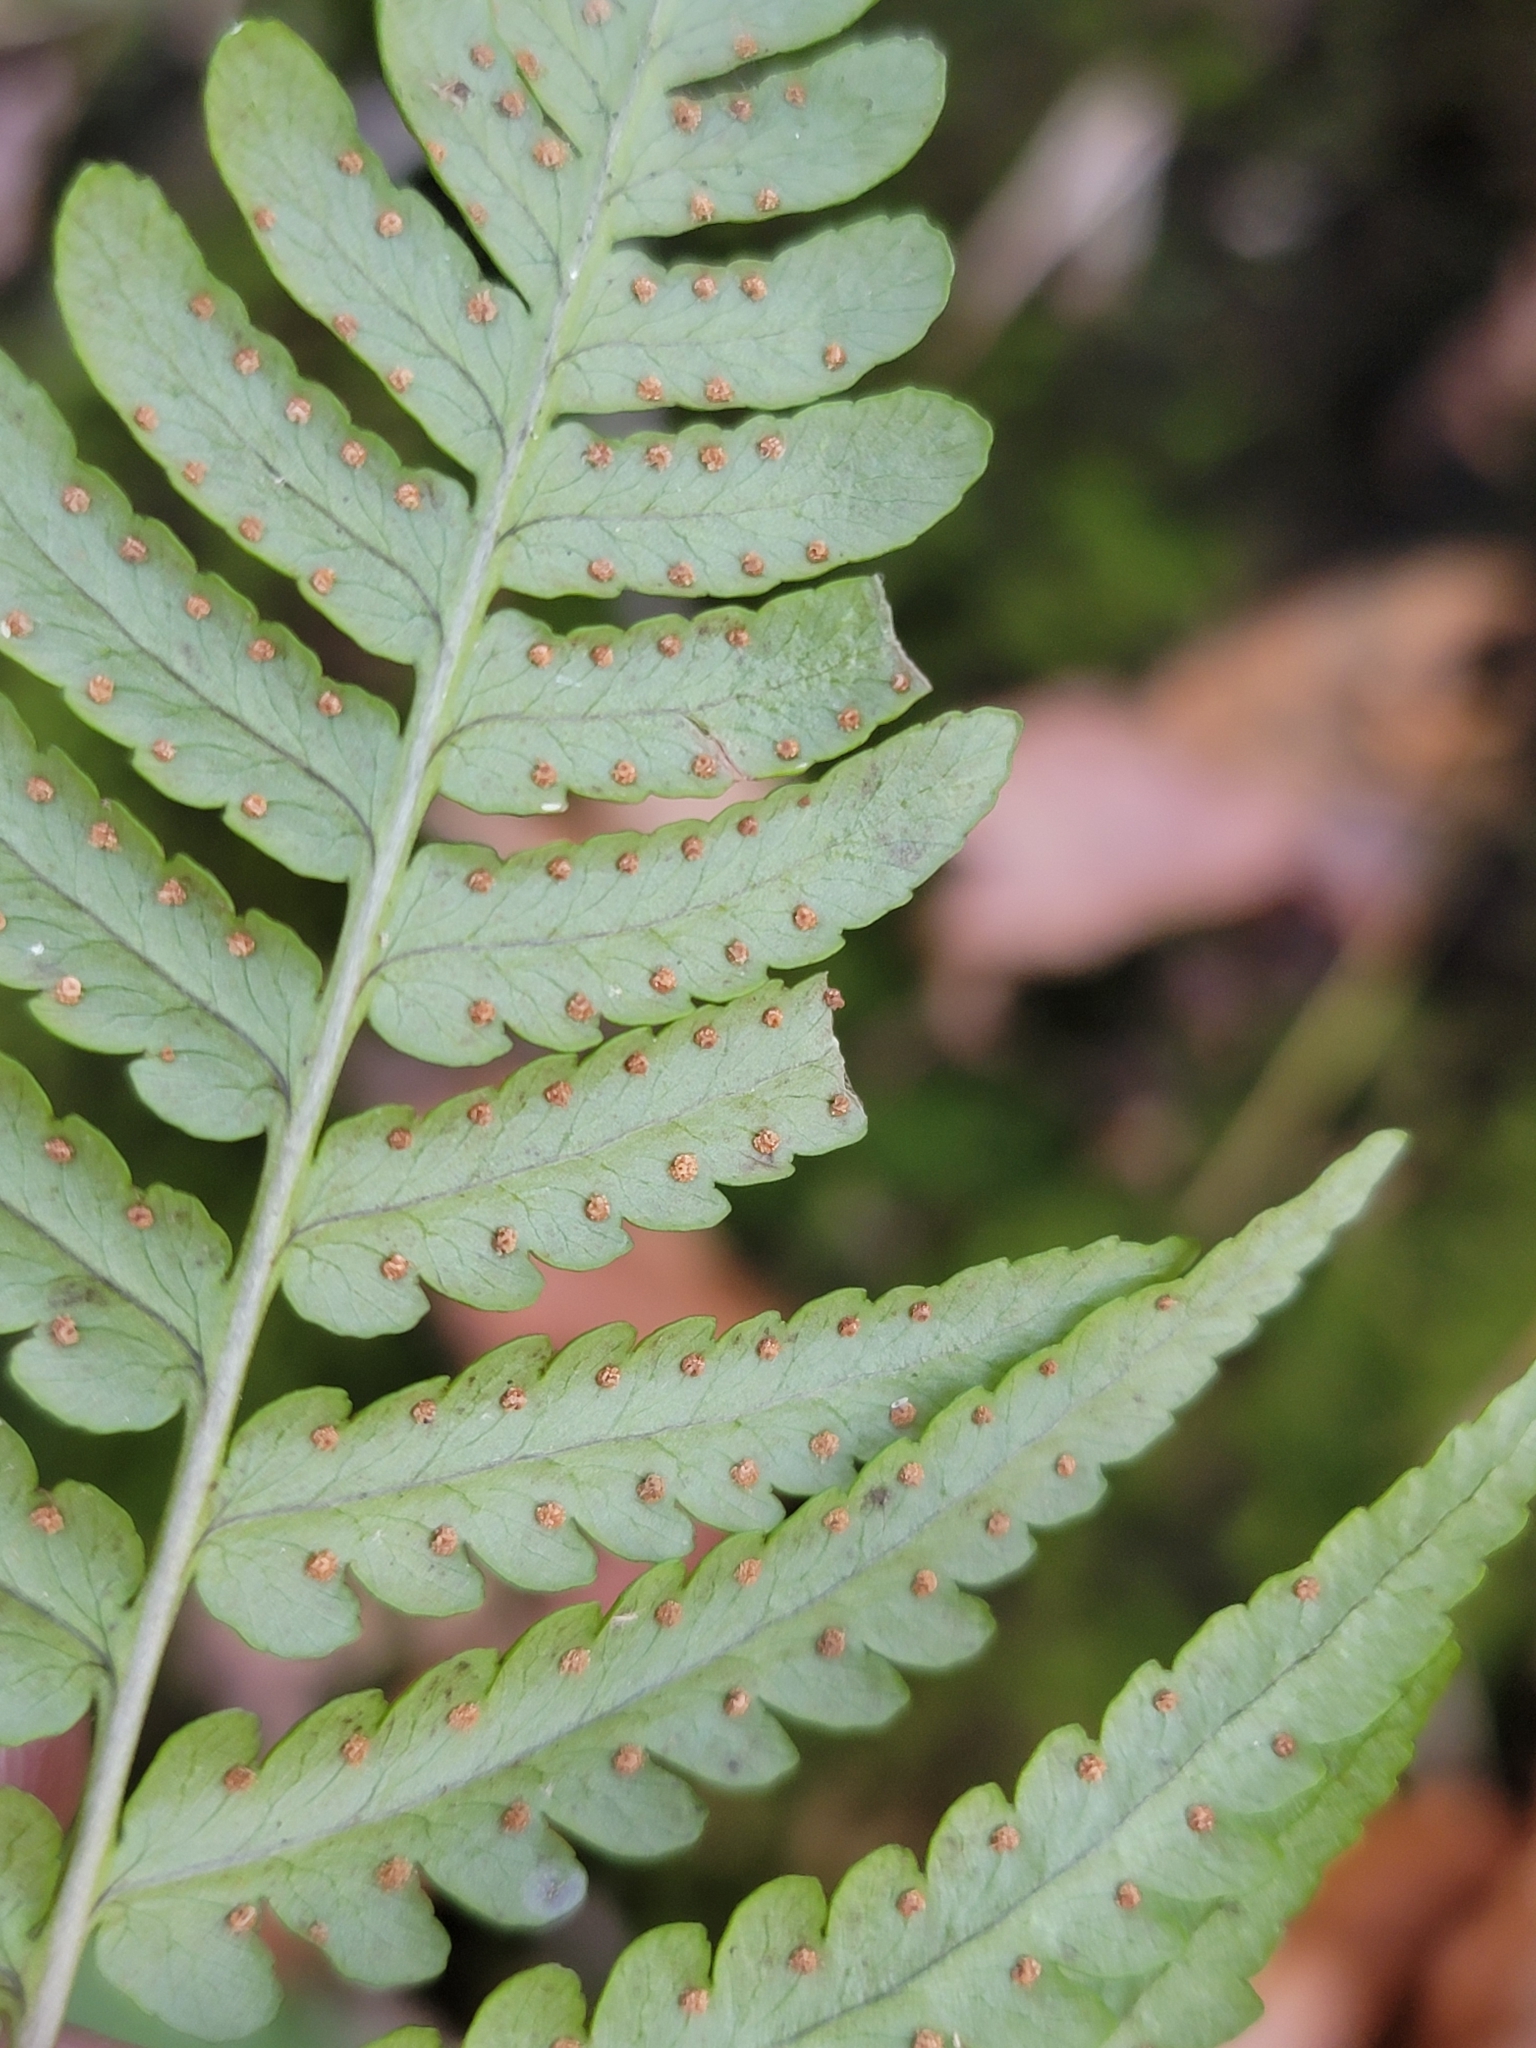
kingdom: Plantae
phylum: Tracheophyta
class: Polypodiopsida
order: Polypodiales
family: Dryopteridaceae
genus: Dryopteris
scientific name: Dryopteris marginalis
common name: Marginal wood fern
